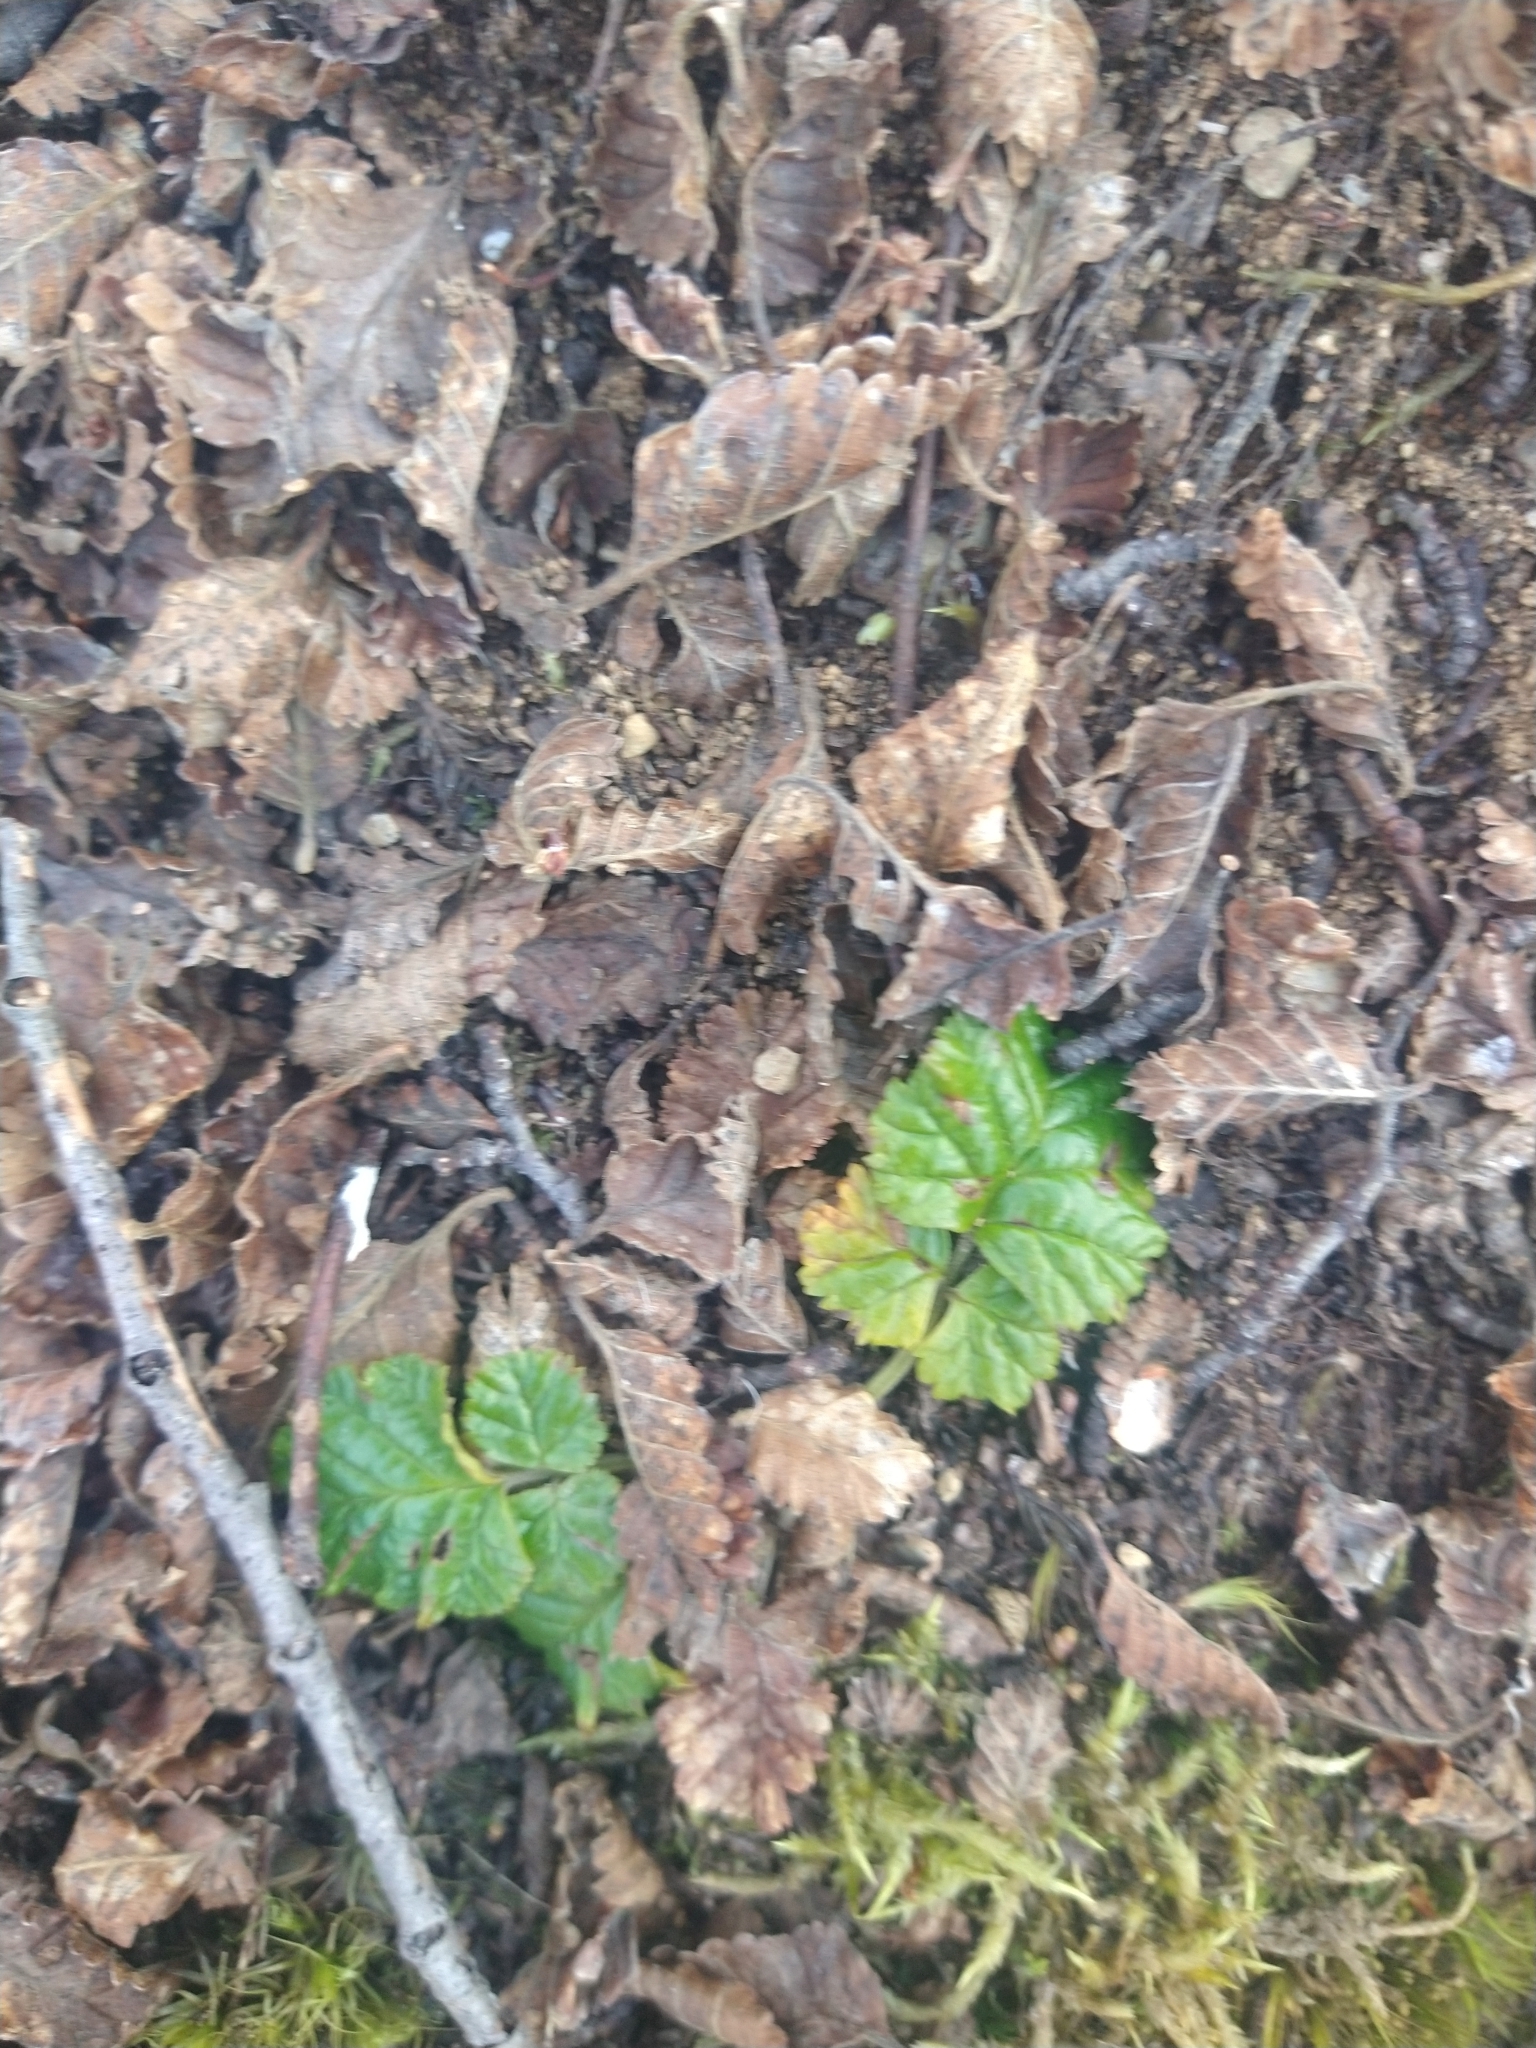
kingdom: Plantae
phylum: Tracheophyta
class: Magnoliopsida
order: Rosales
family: Rosaceae
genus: Rubus
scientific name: Rubus geoides
